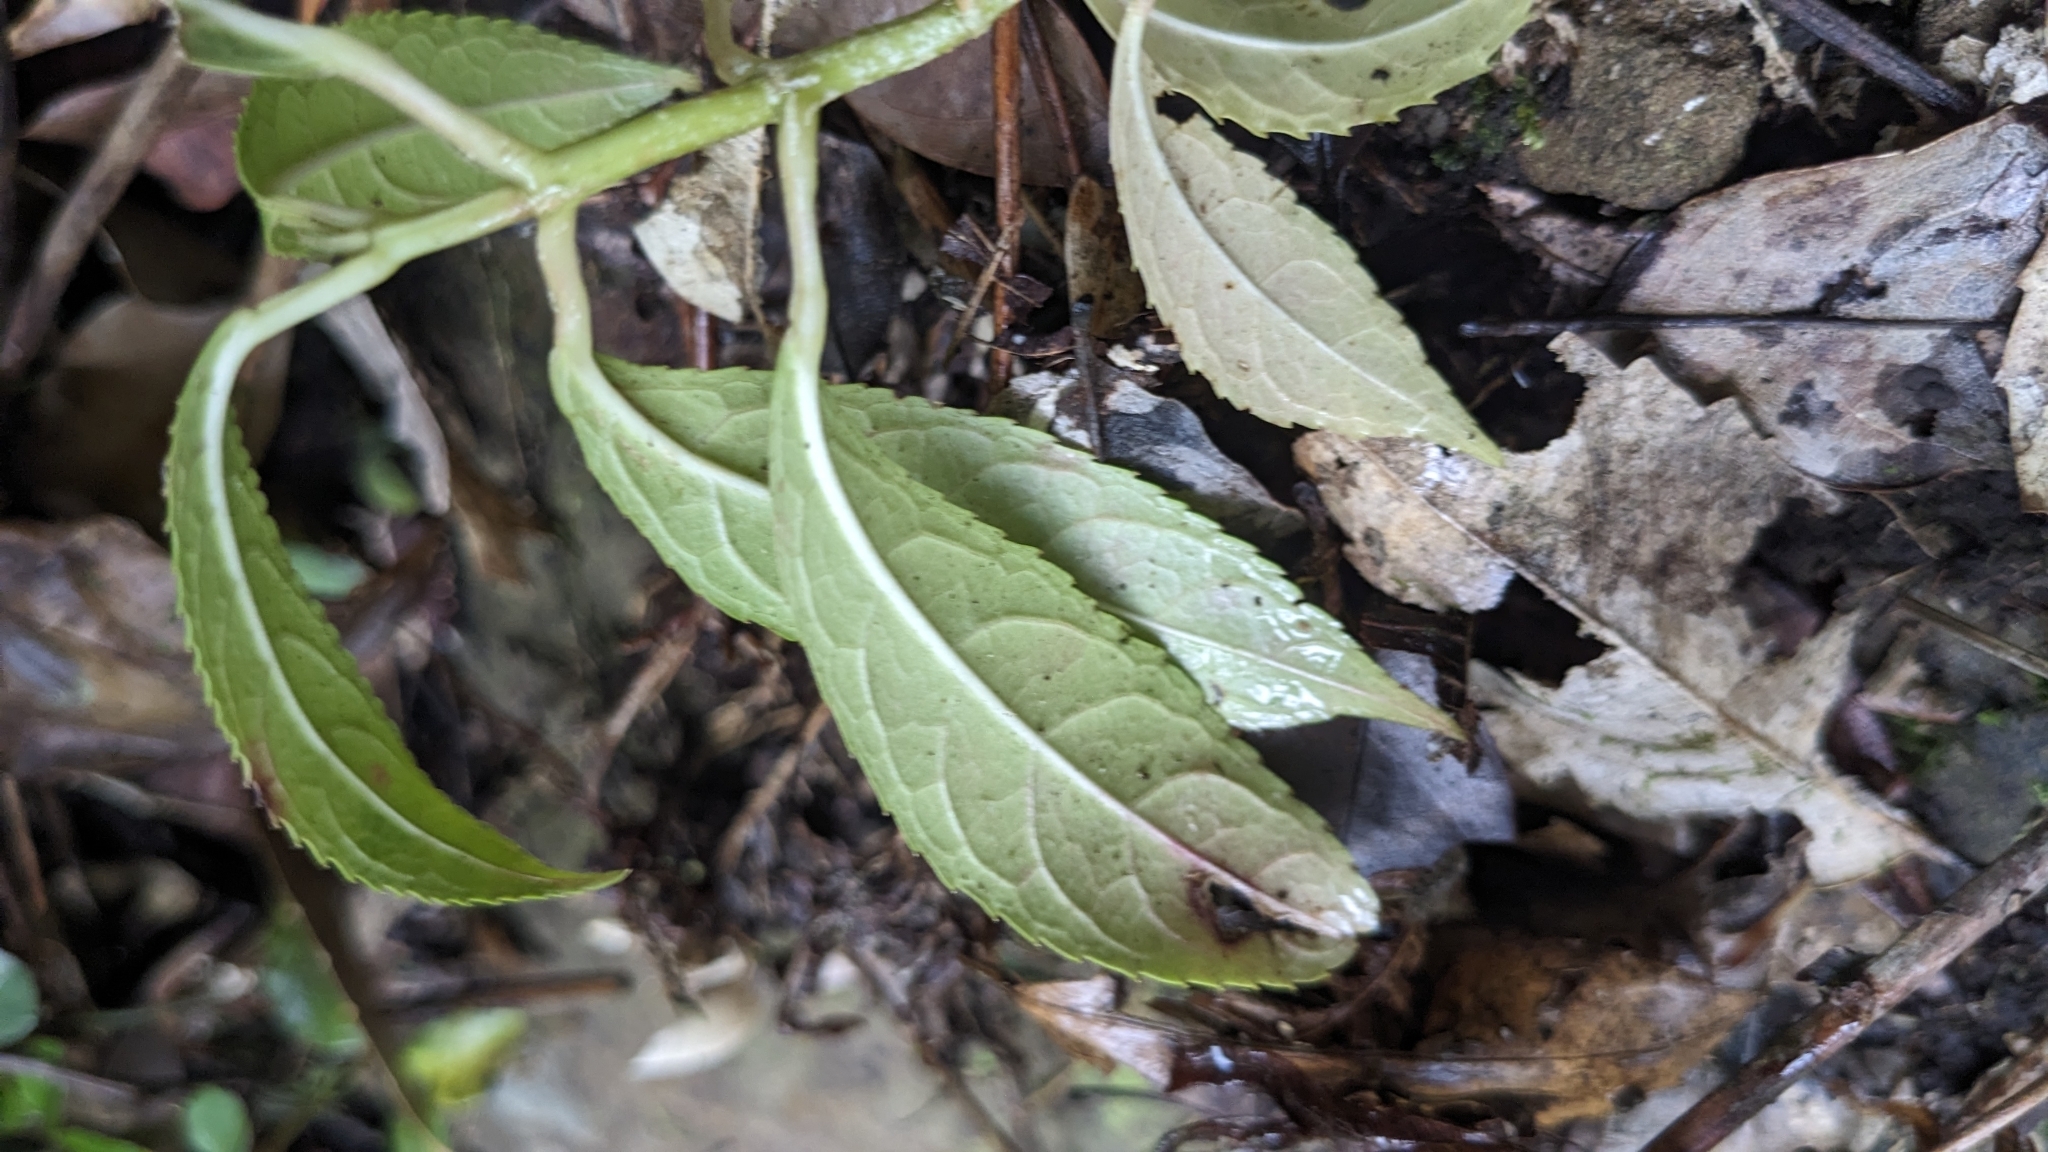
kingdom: Plantae
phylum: Tracheophyta
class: Magnoliopsida
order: Crossosomatales
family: Staphyleaceae
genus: Turpinia
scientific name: Turpinia formosana
